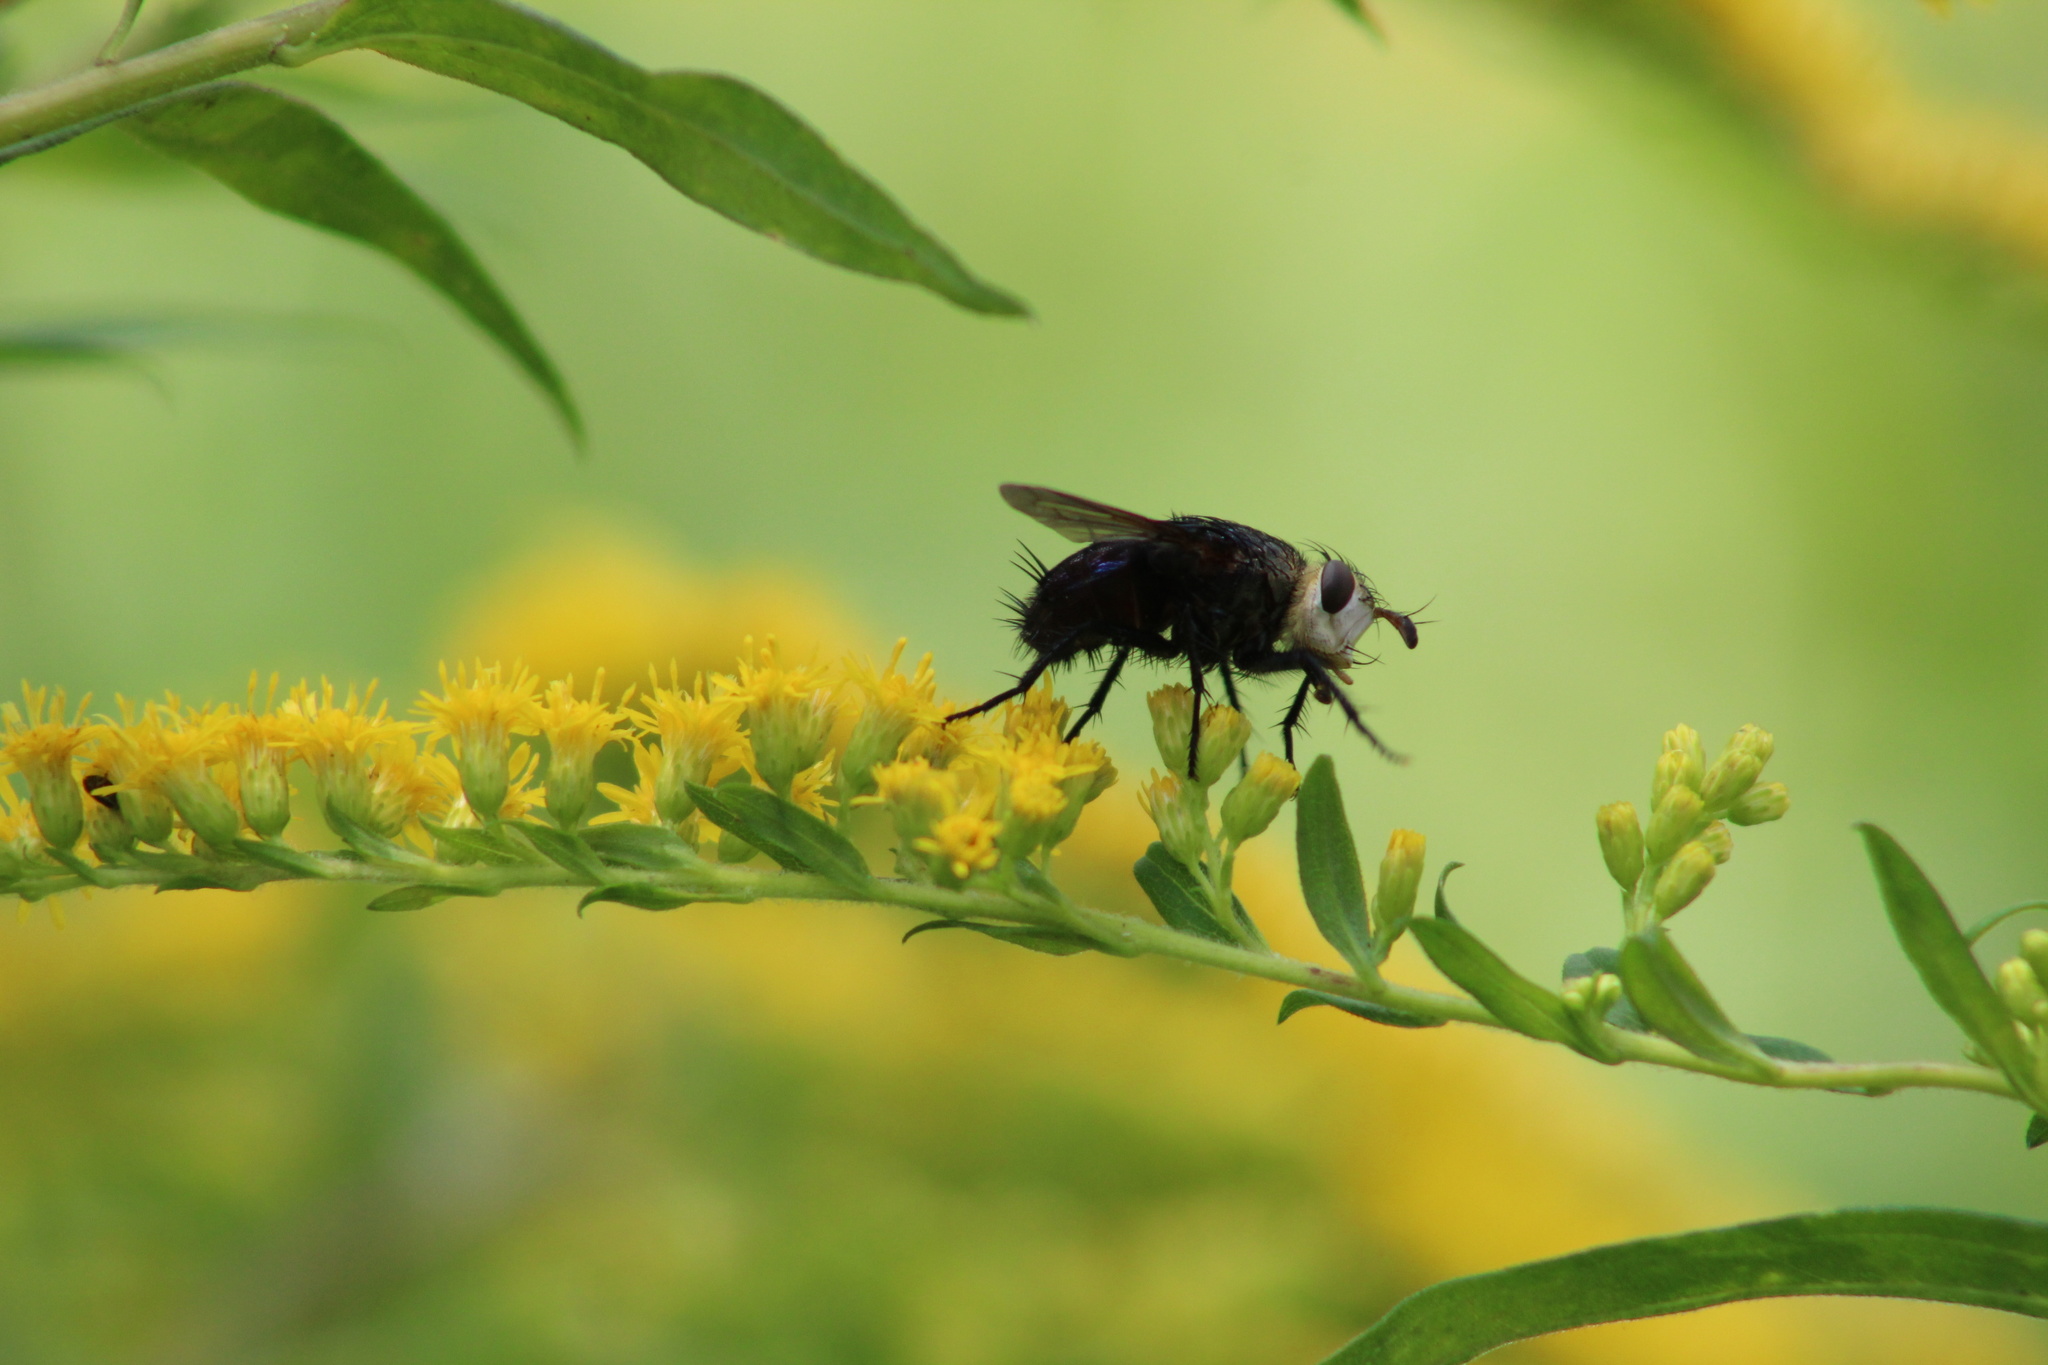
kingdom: Animalia
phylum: Arthropoda
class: Insecta
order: Diptera
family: Tachinidae
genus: Juriniopsis
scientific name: Juriniopsis adusta
